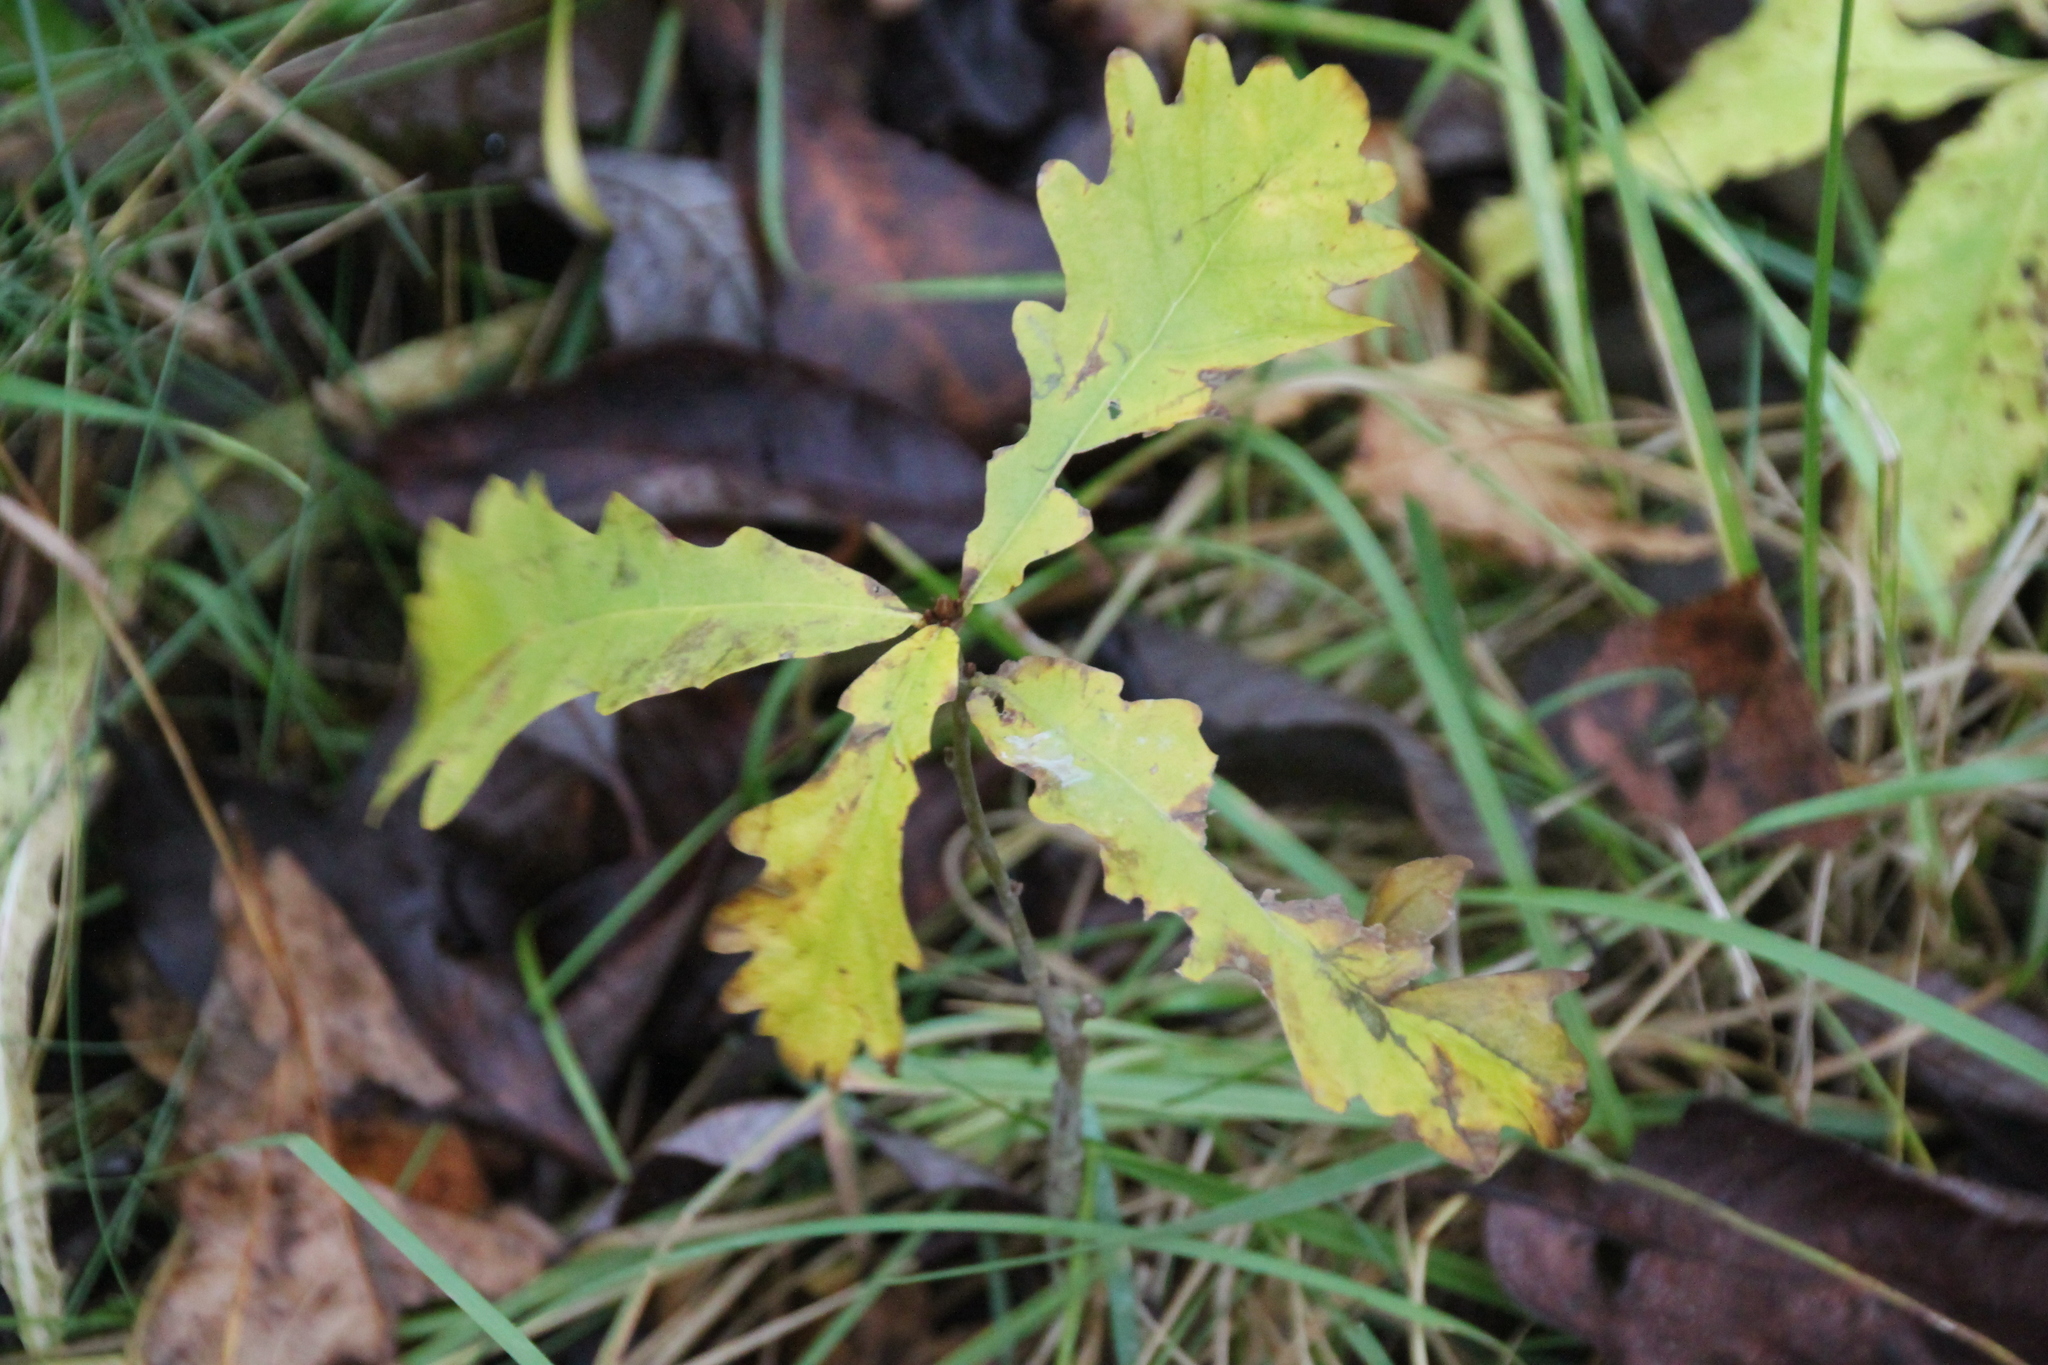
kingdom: Plantae
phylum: Tracheophyta
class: Magnoliopsida
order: Fagales
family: Fagaceae
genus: Quercus
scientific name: Quercus robur
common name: Pedunculate oak
